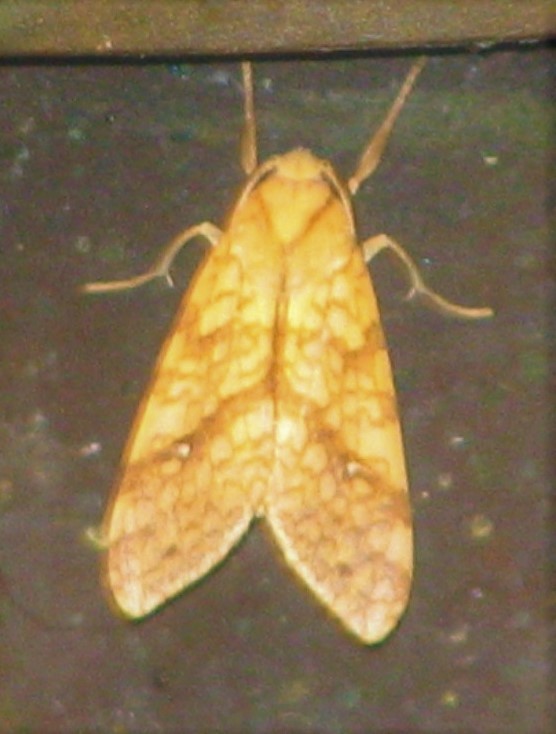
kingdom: Animalia
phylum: Arthropoda
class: Insecta
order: Lepidoptera
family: Erebidae
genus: Lophocampa
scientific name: Lophocampa annulosa
